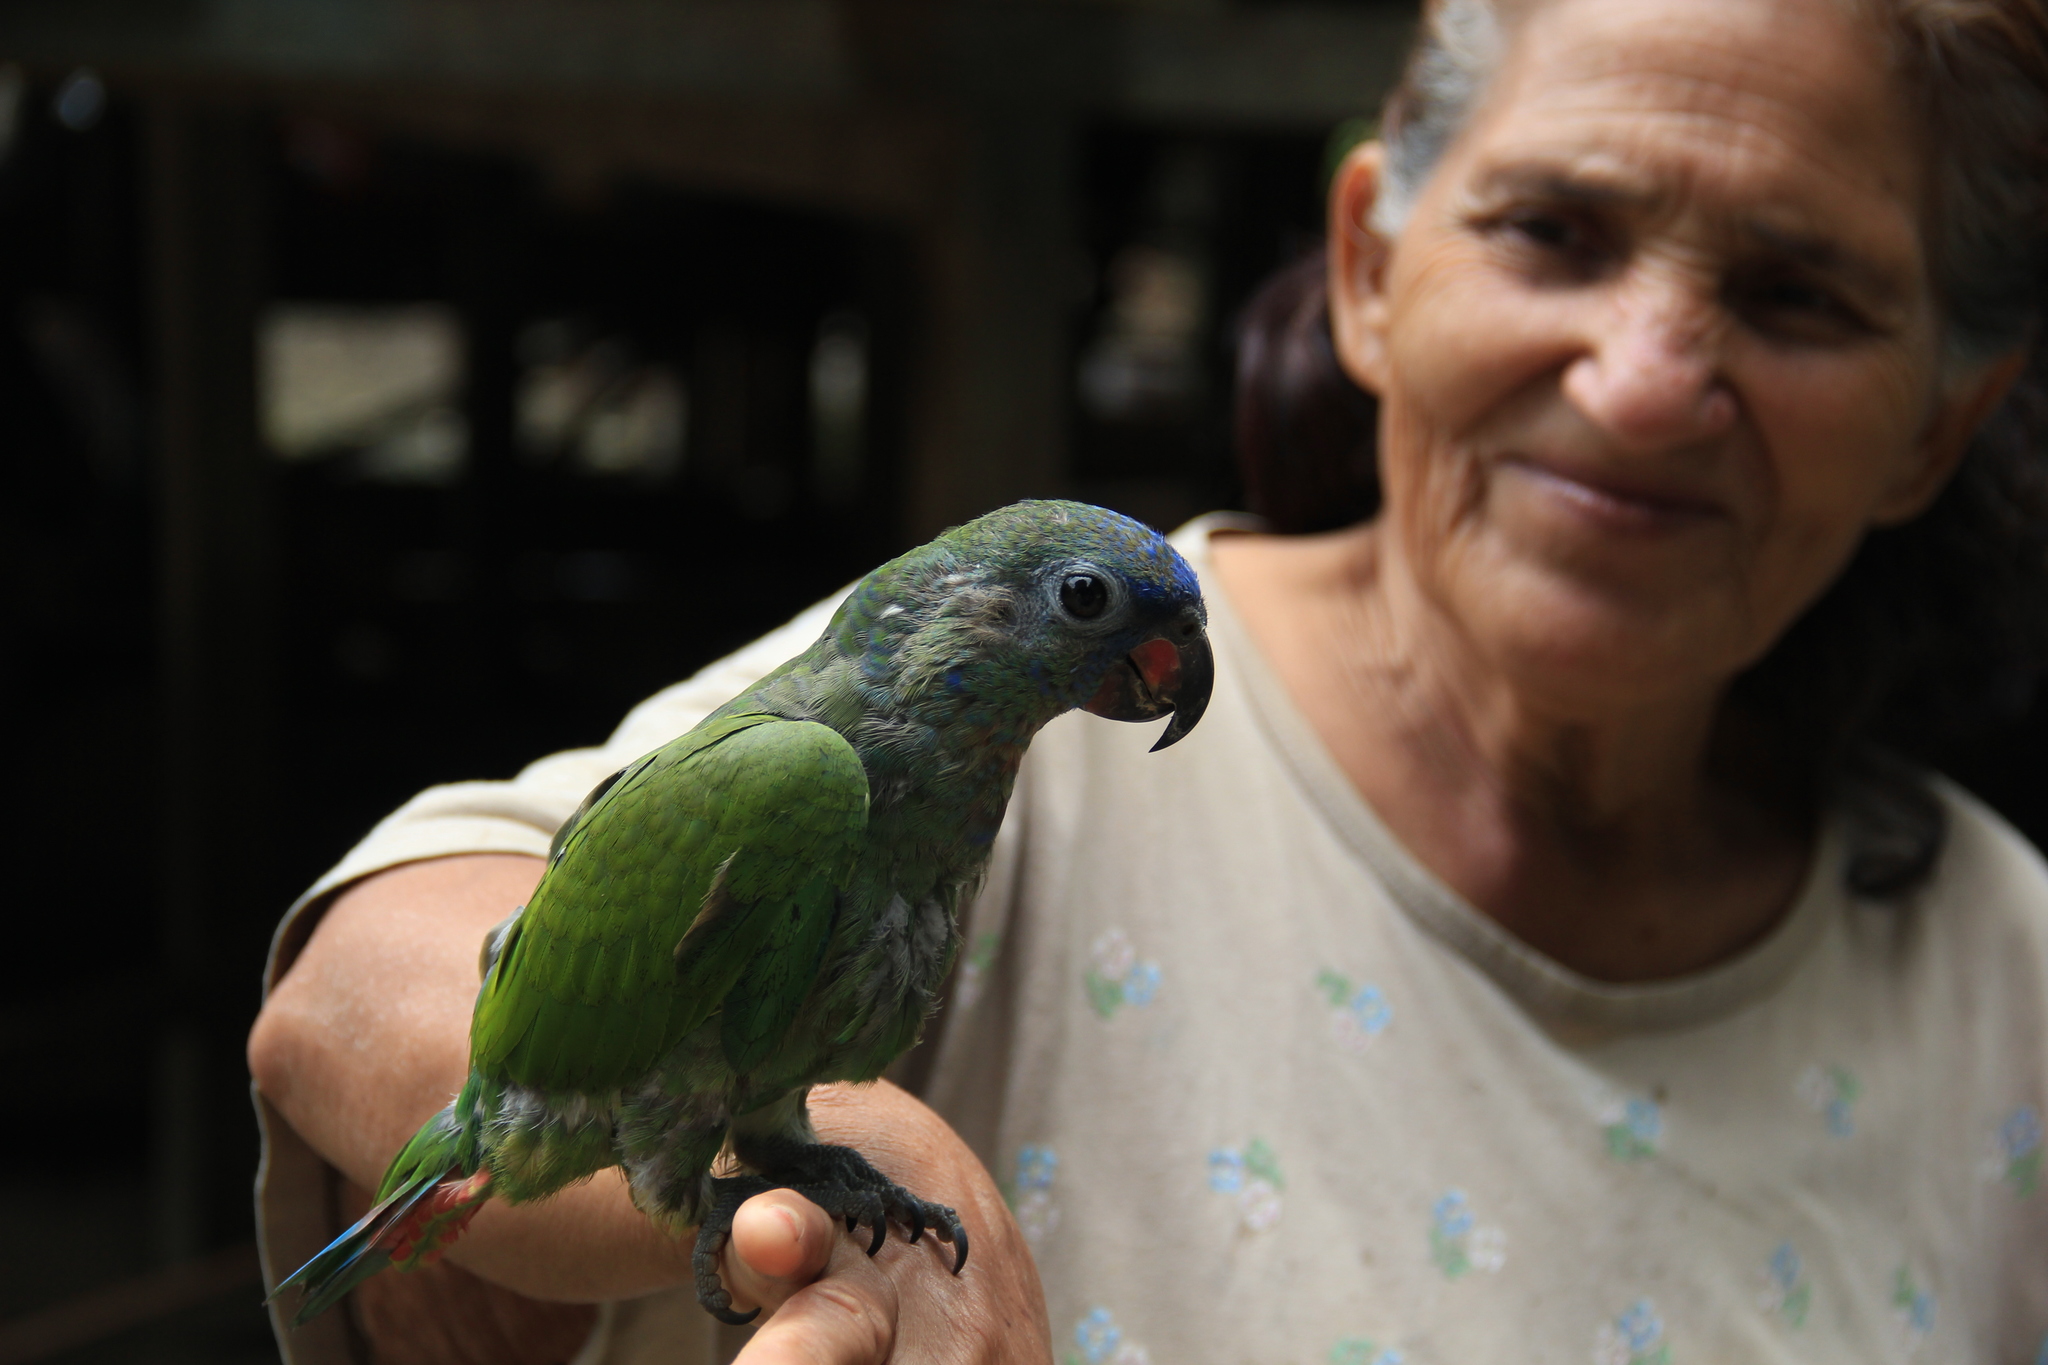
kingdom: Animalia
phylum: Chordata
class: Aves
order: Psittaciformes
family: Psittacidae
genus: Pionus
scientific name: Pionus menstruus
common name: Blue-headed parrot
